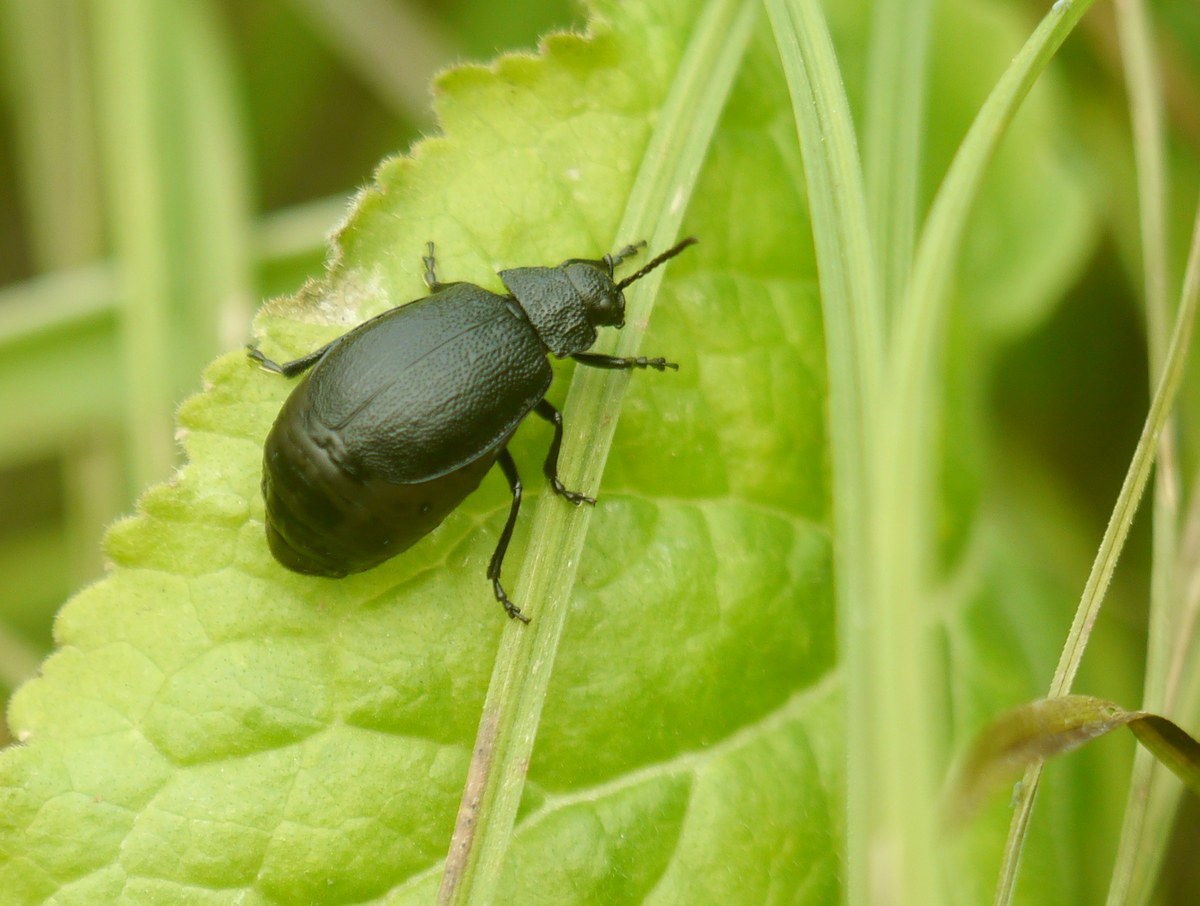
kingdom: Animalia
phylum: Arthropoda
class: Insecta
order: Coleoptera
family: Chrysomelidae
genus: Galeruca
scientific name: Galeruca tanaceti
